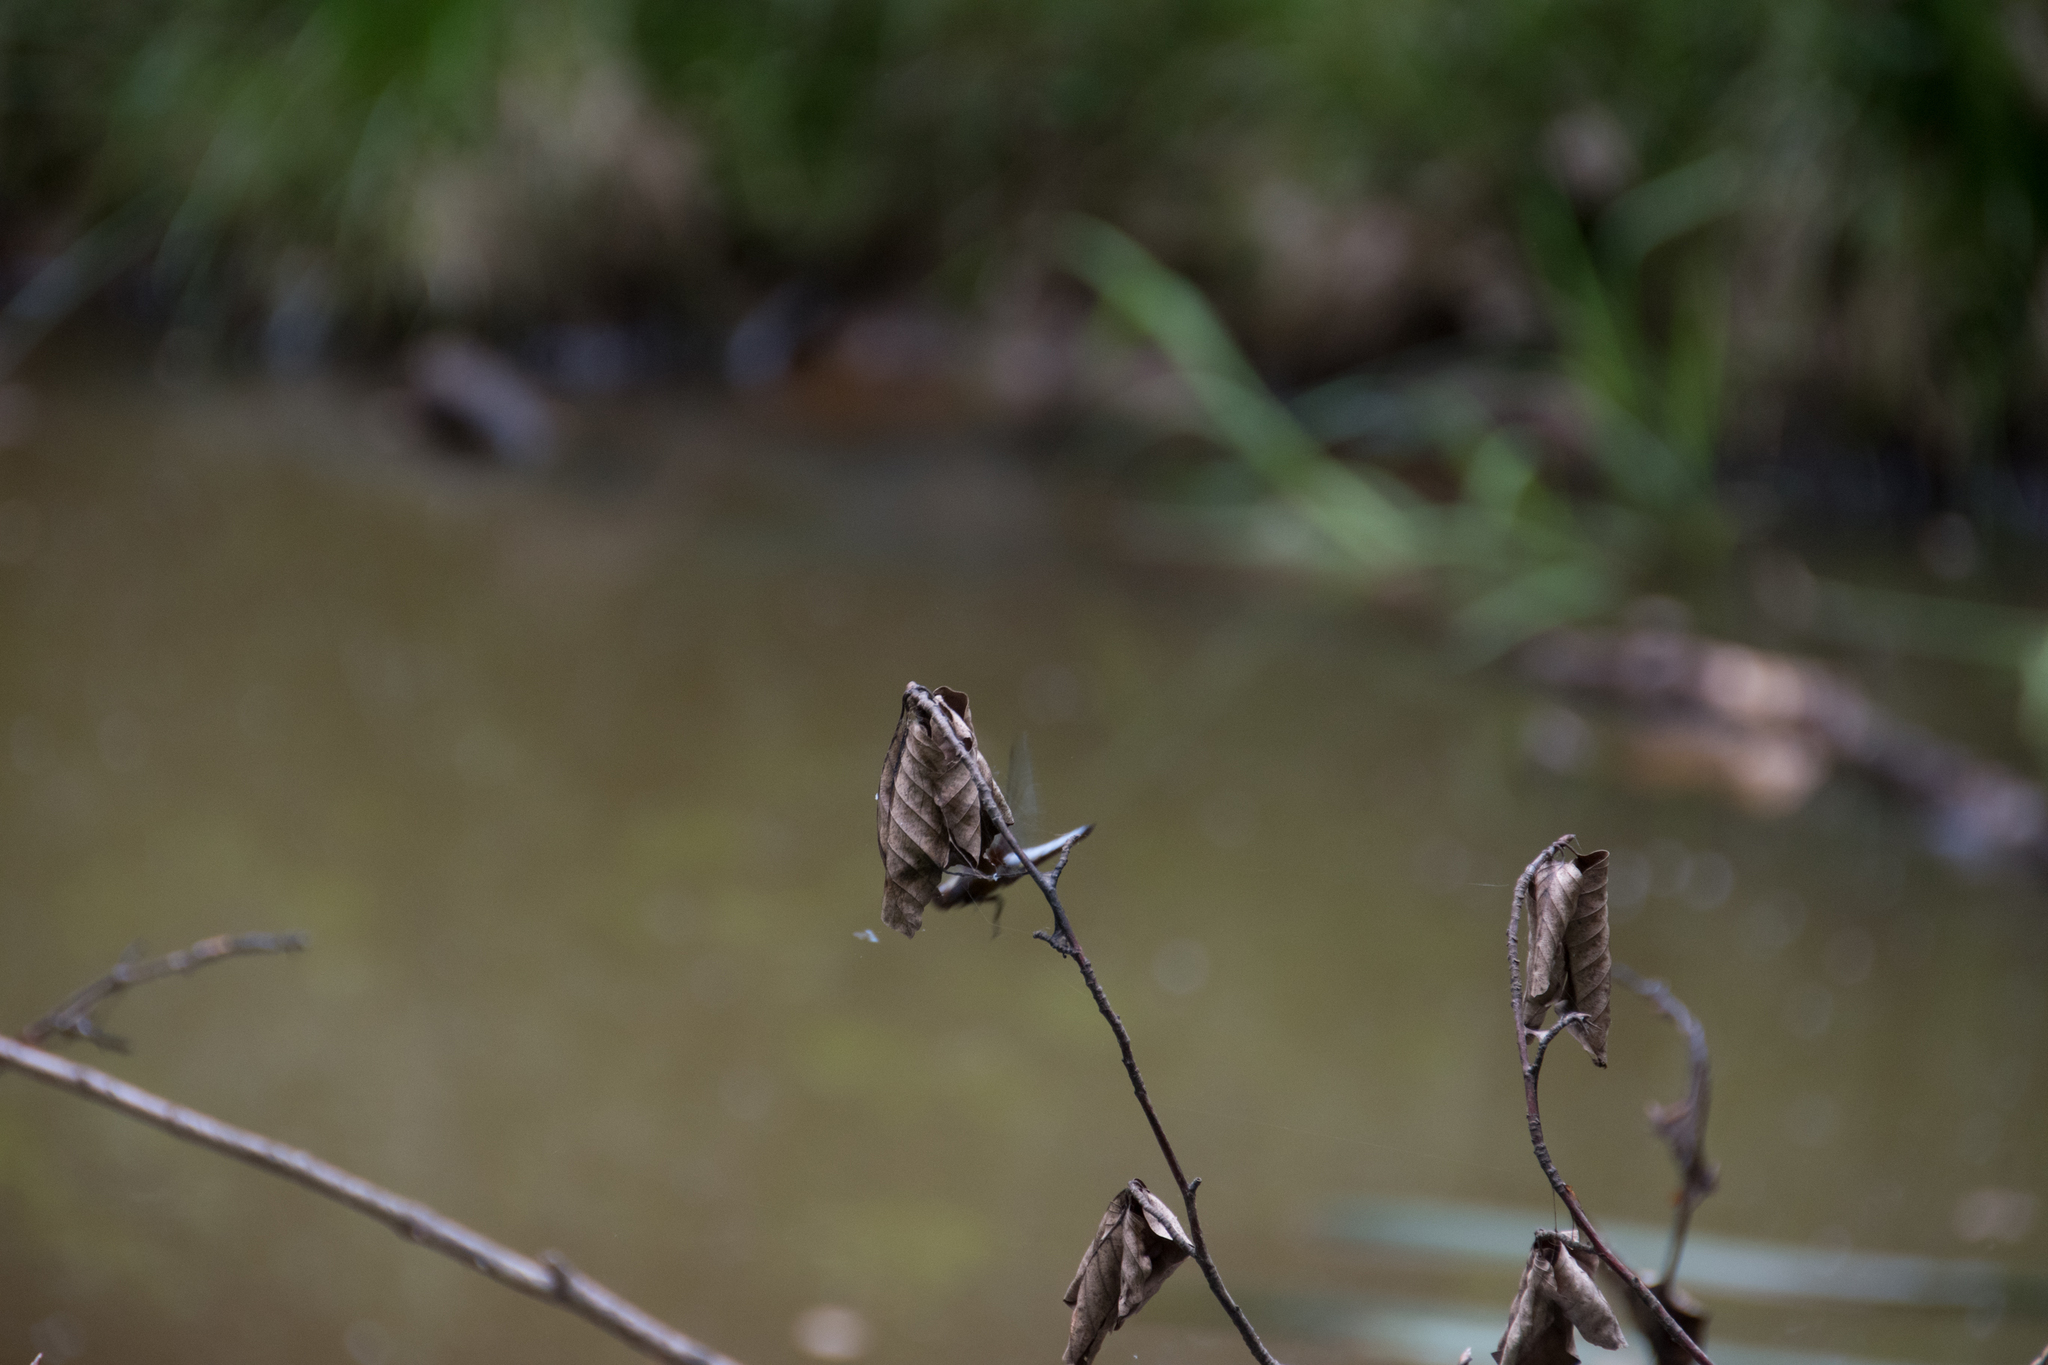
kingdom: Animalia
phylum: Arthropoda
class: Insecta
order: Odonata
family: Libellulidae
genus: Libellula
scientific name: Libellula depressa
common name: Broad-bodied chaser
